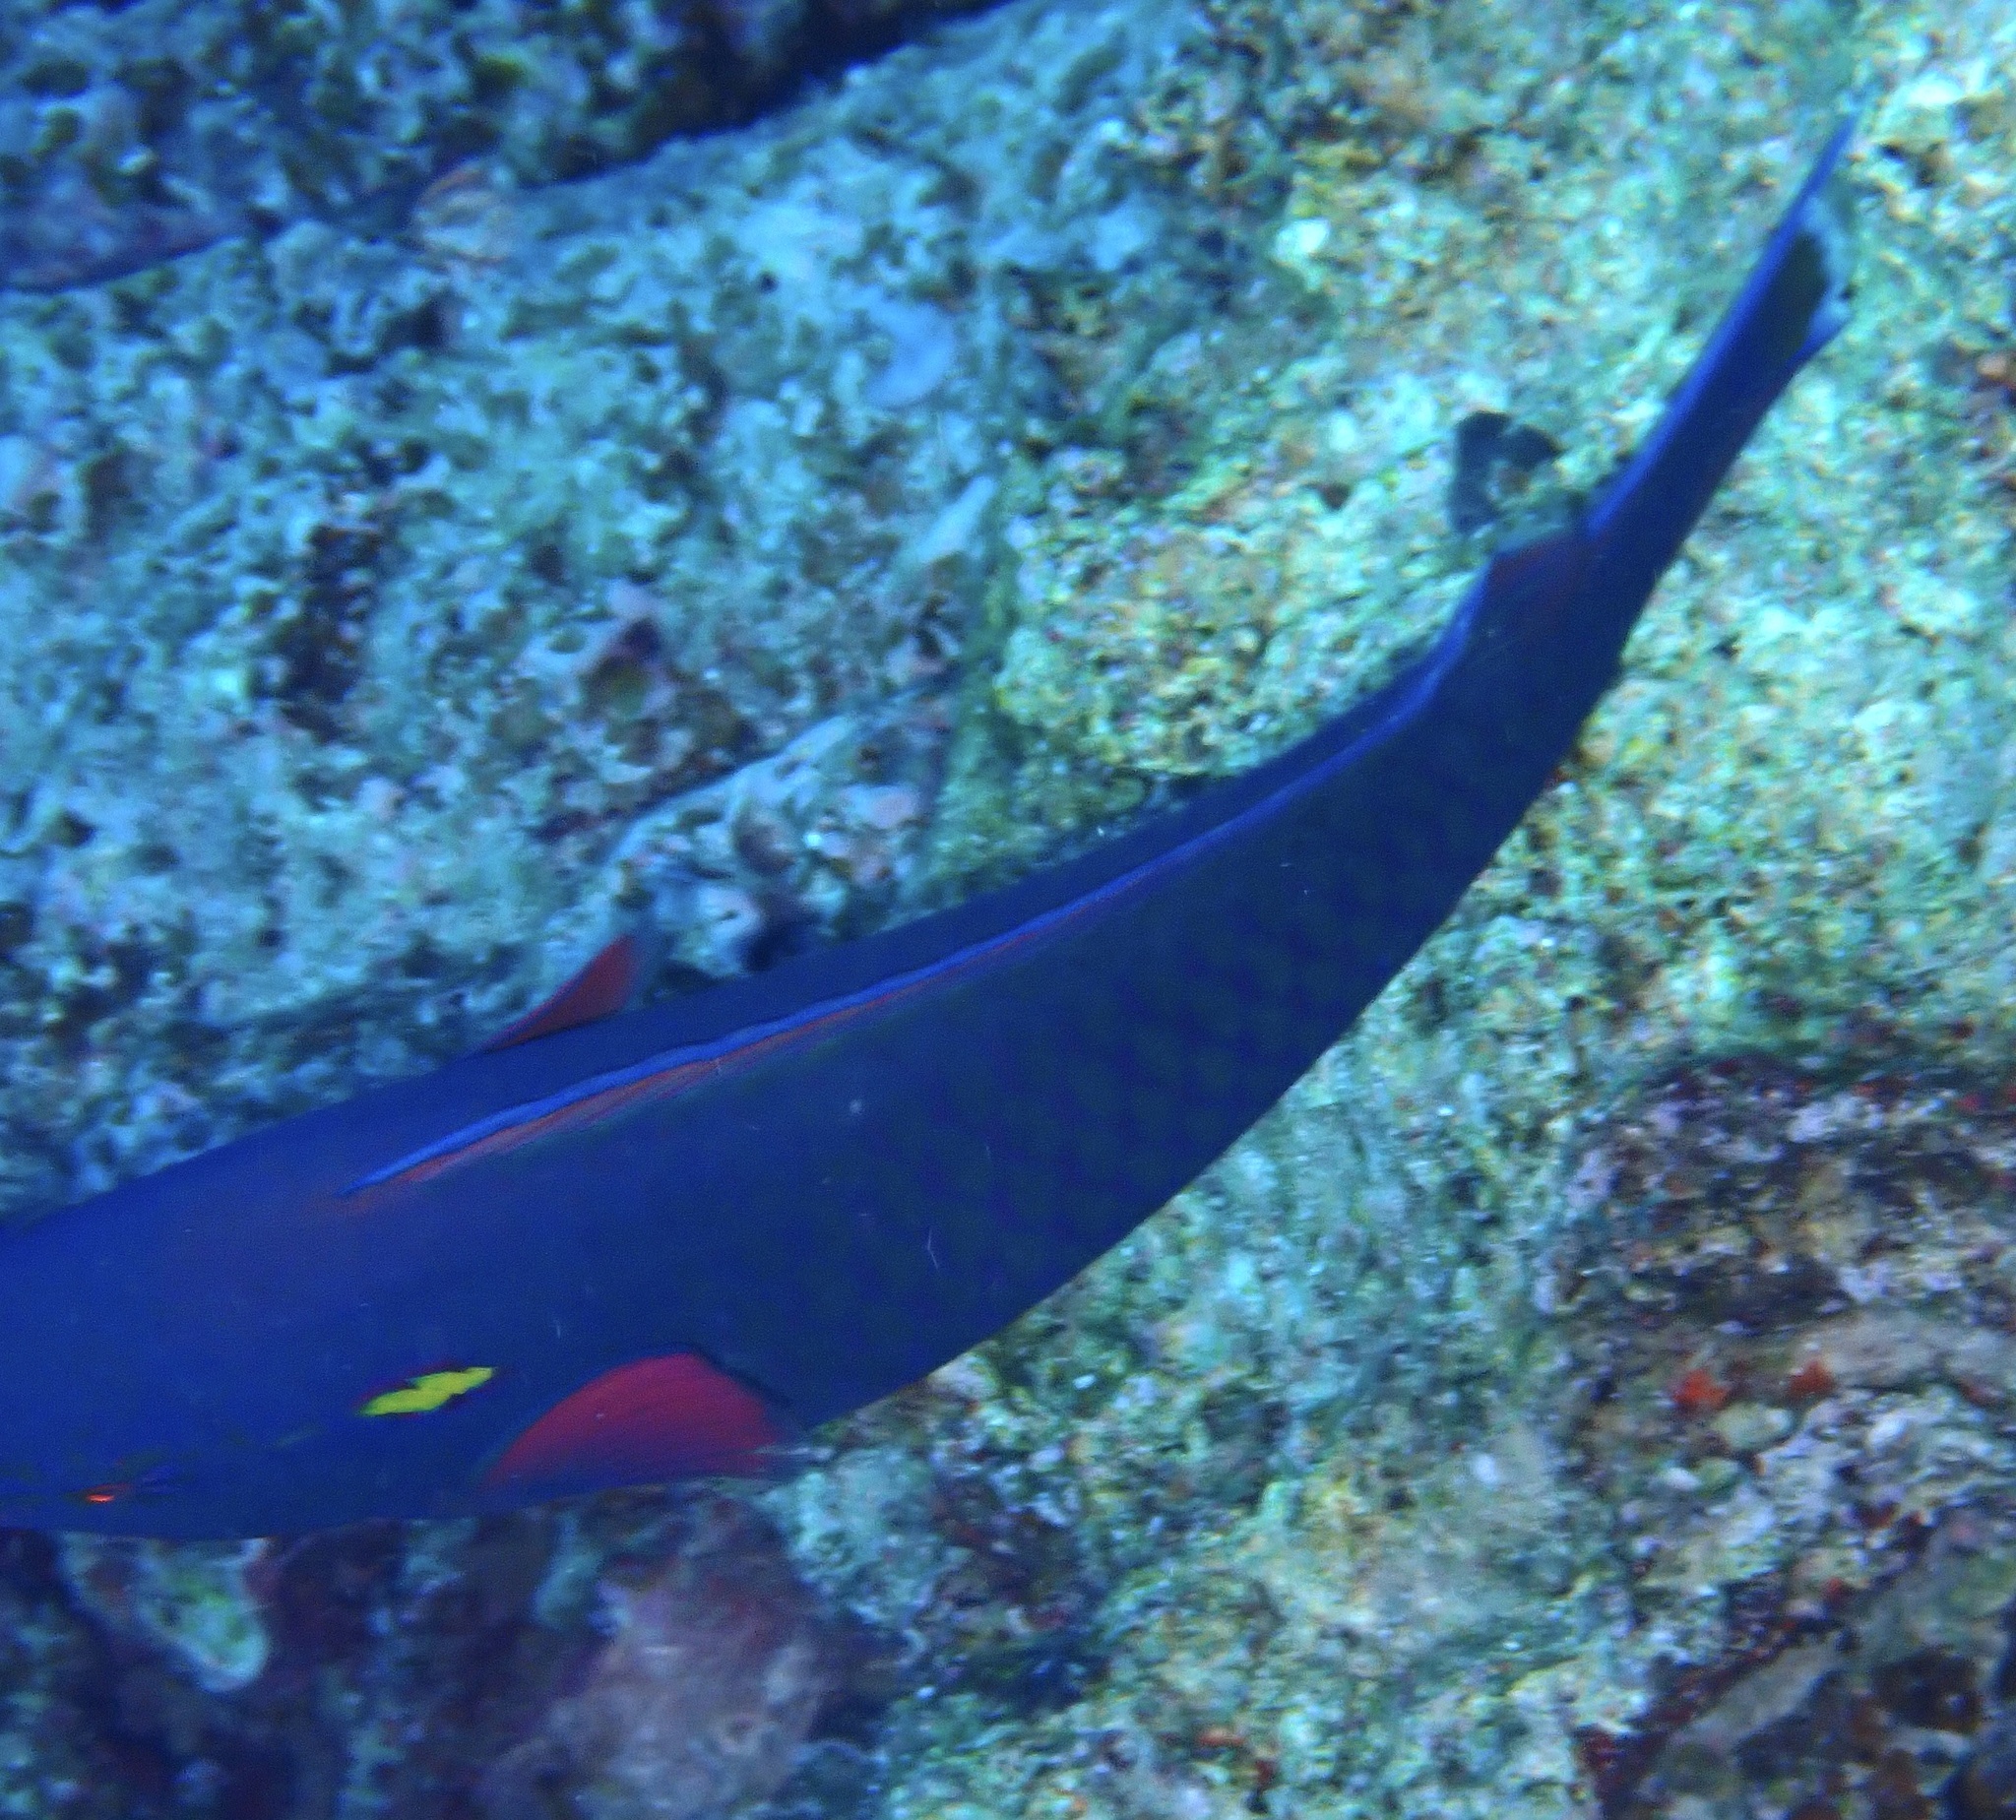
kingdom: Animalia
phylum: Chordata
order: Perciformes
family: Scaridae
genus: Scarus
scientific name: Scarus niger
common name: Dusky parrotfish
